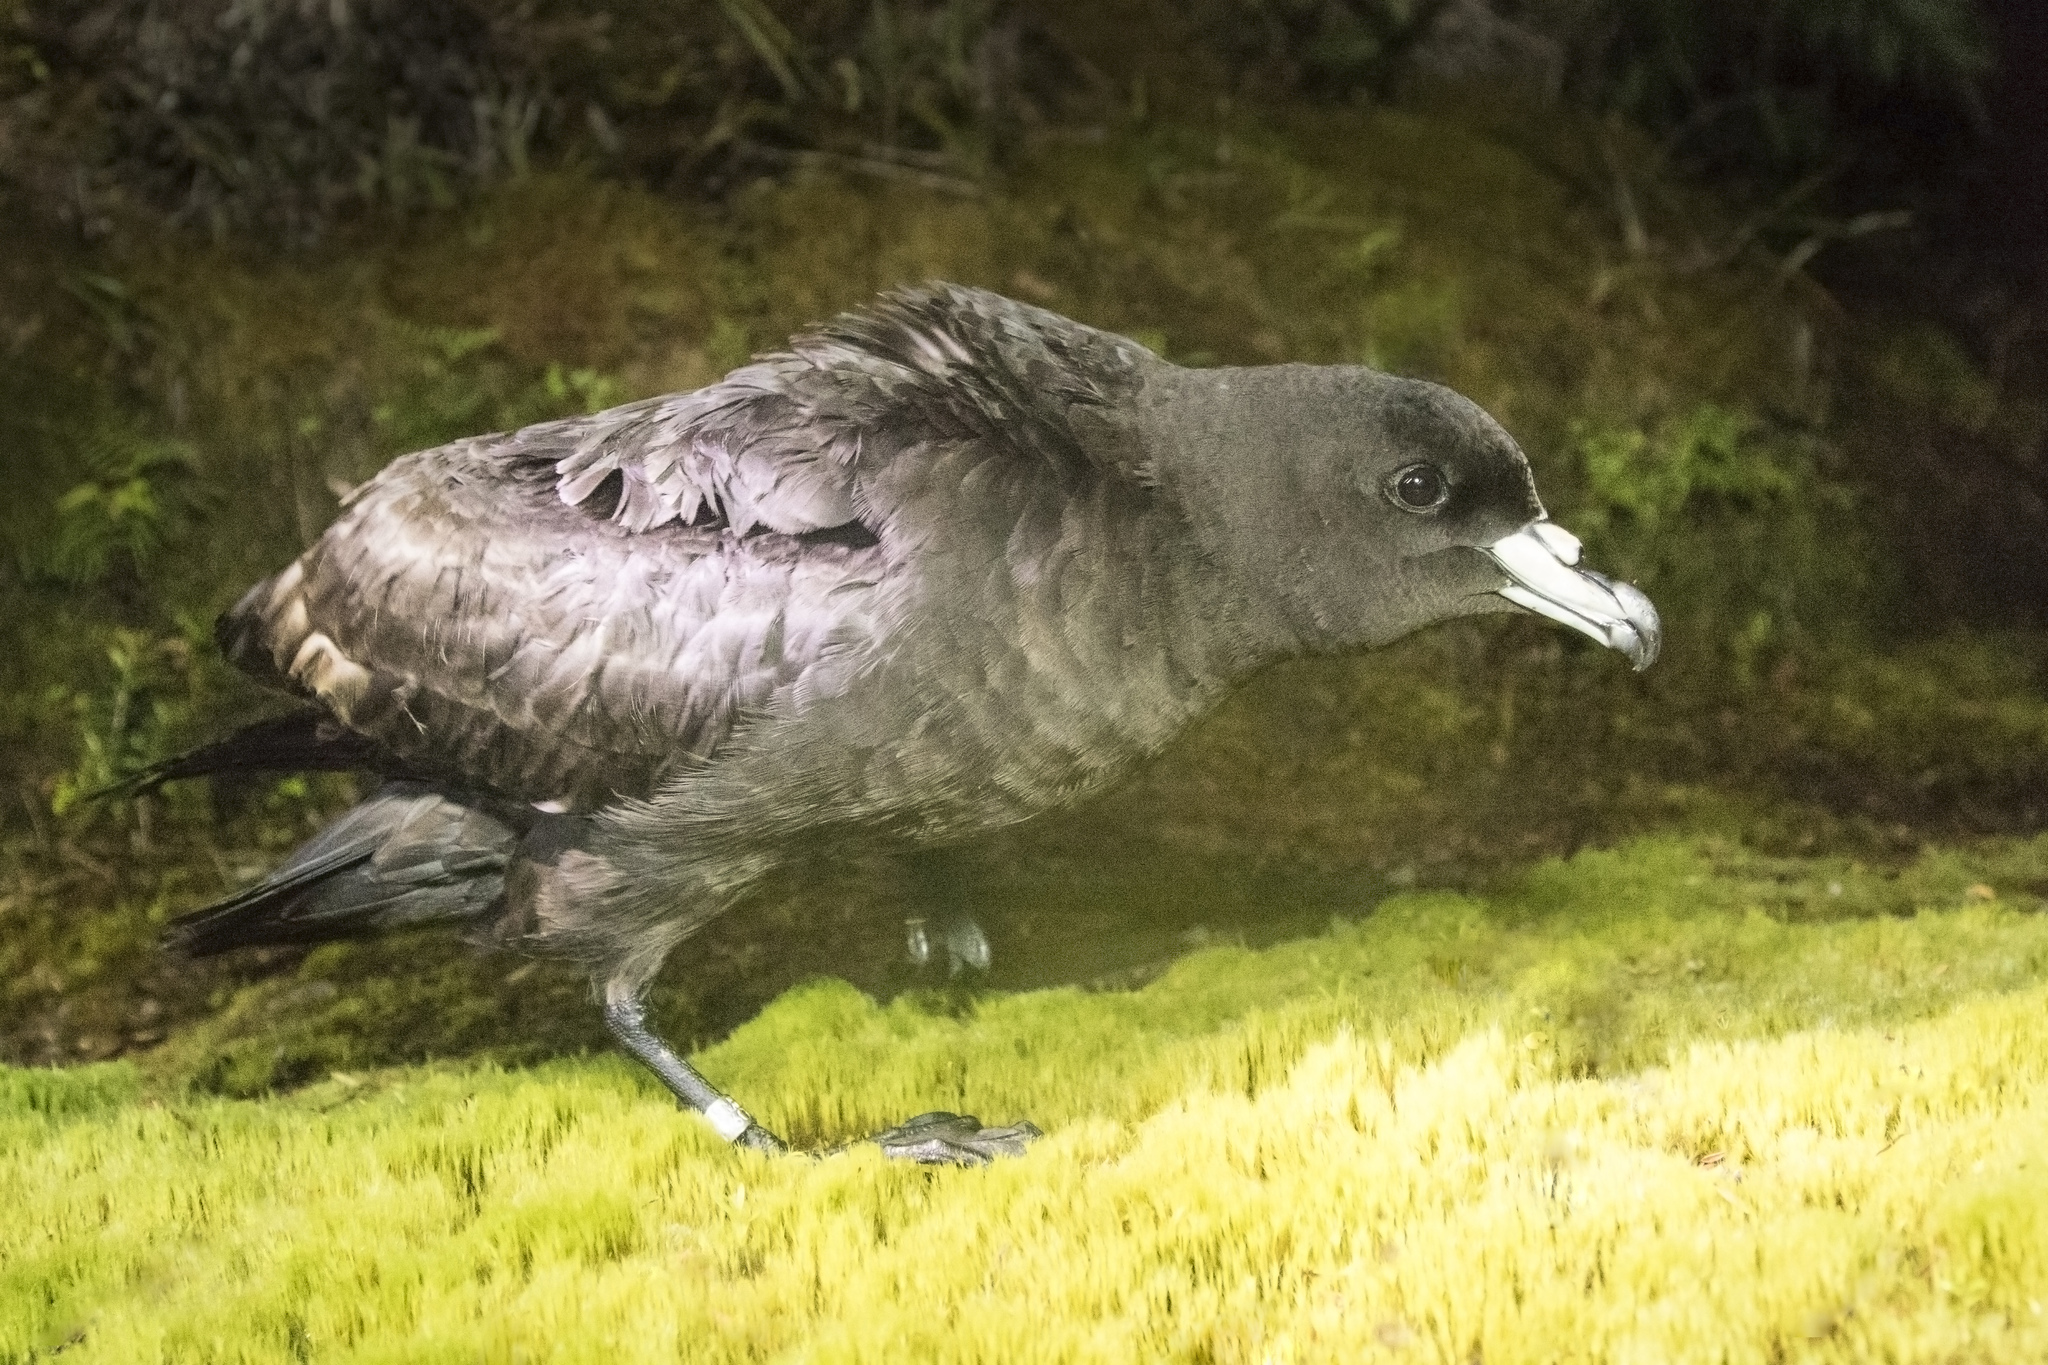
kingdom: Animalia
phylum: Chordata
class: Aves
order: Procellariiformes
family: Procellariidae
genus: Procellaria
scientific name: Procellaria parkinsoni
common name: Black petrel
